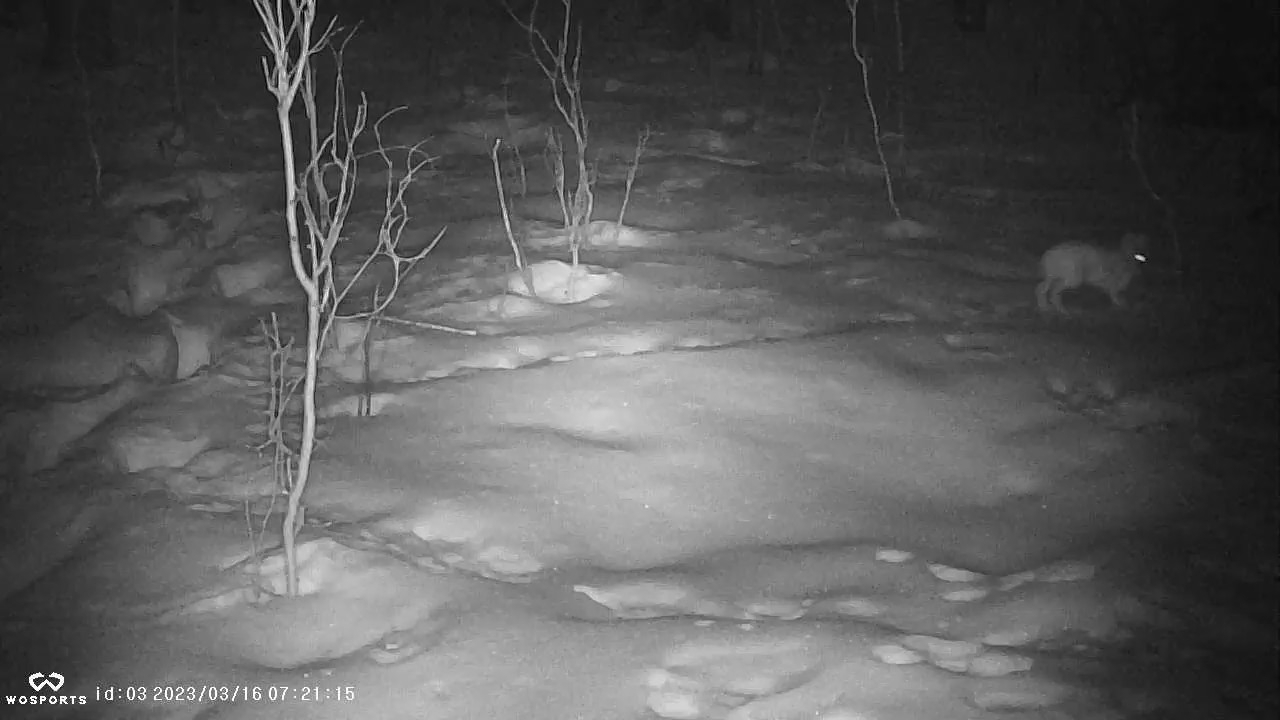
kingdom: Animalia
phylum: Chordata
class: Mammalia
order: Lagomorpha
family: Leporidae
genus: Lepus
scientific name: Lepus americanus
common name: Snowshoe hare
